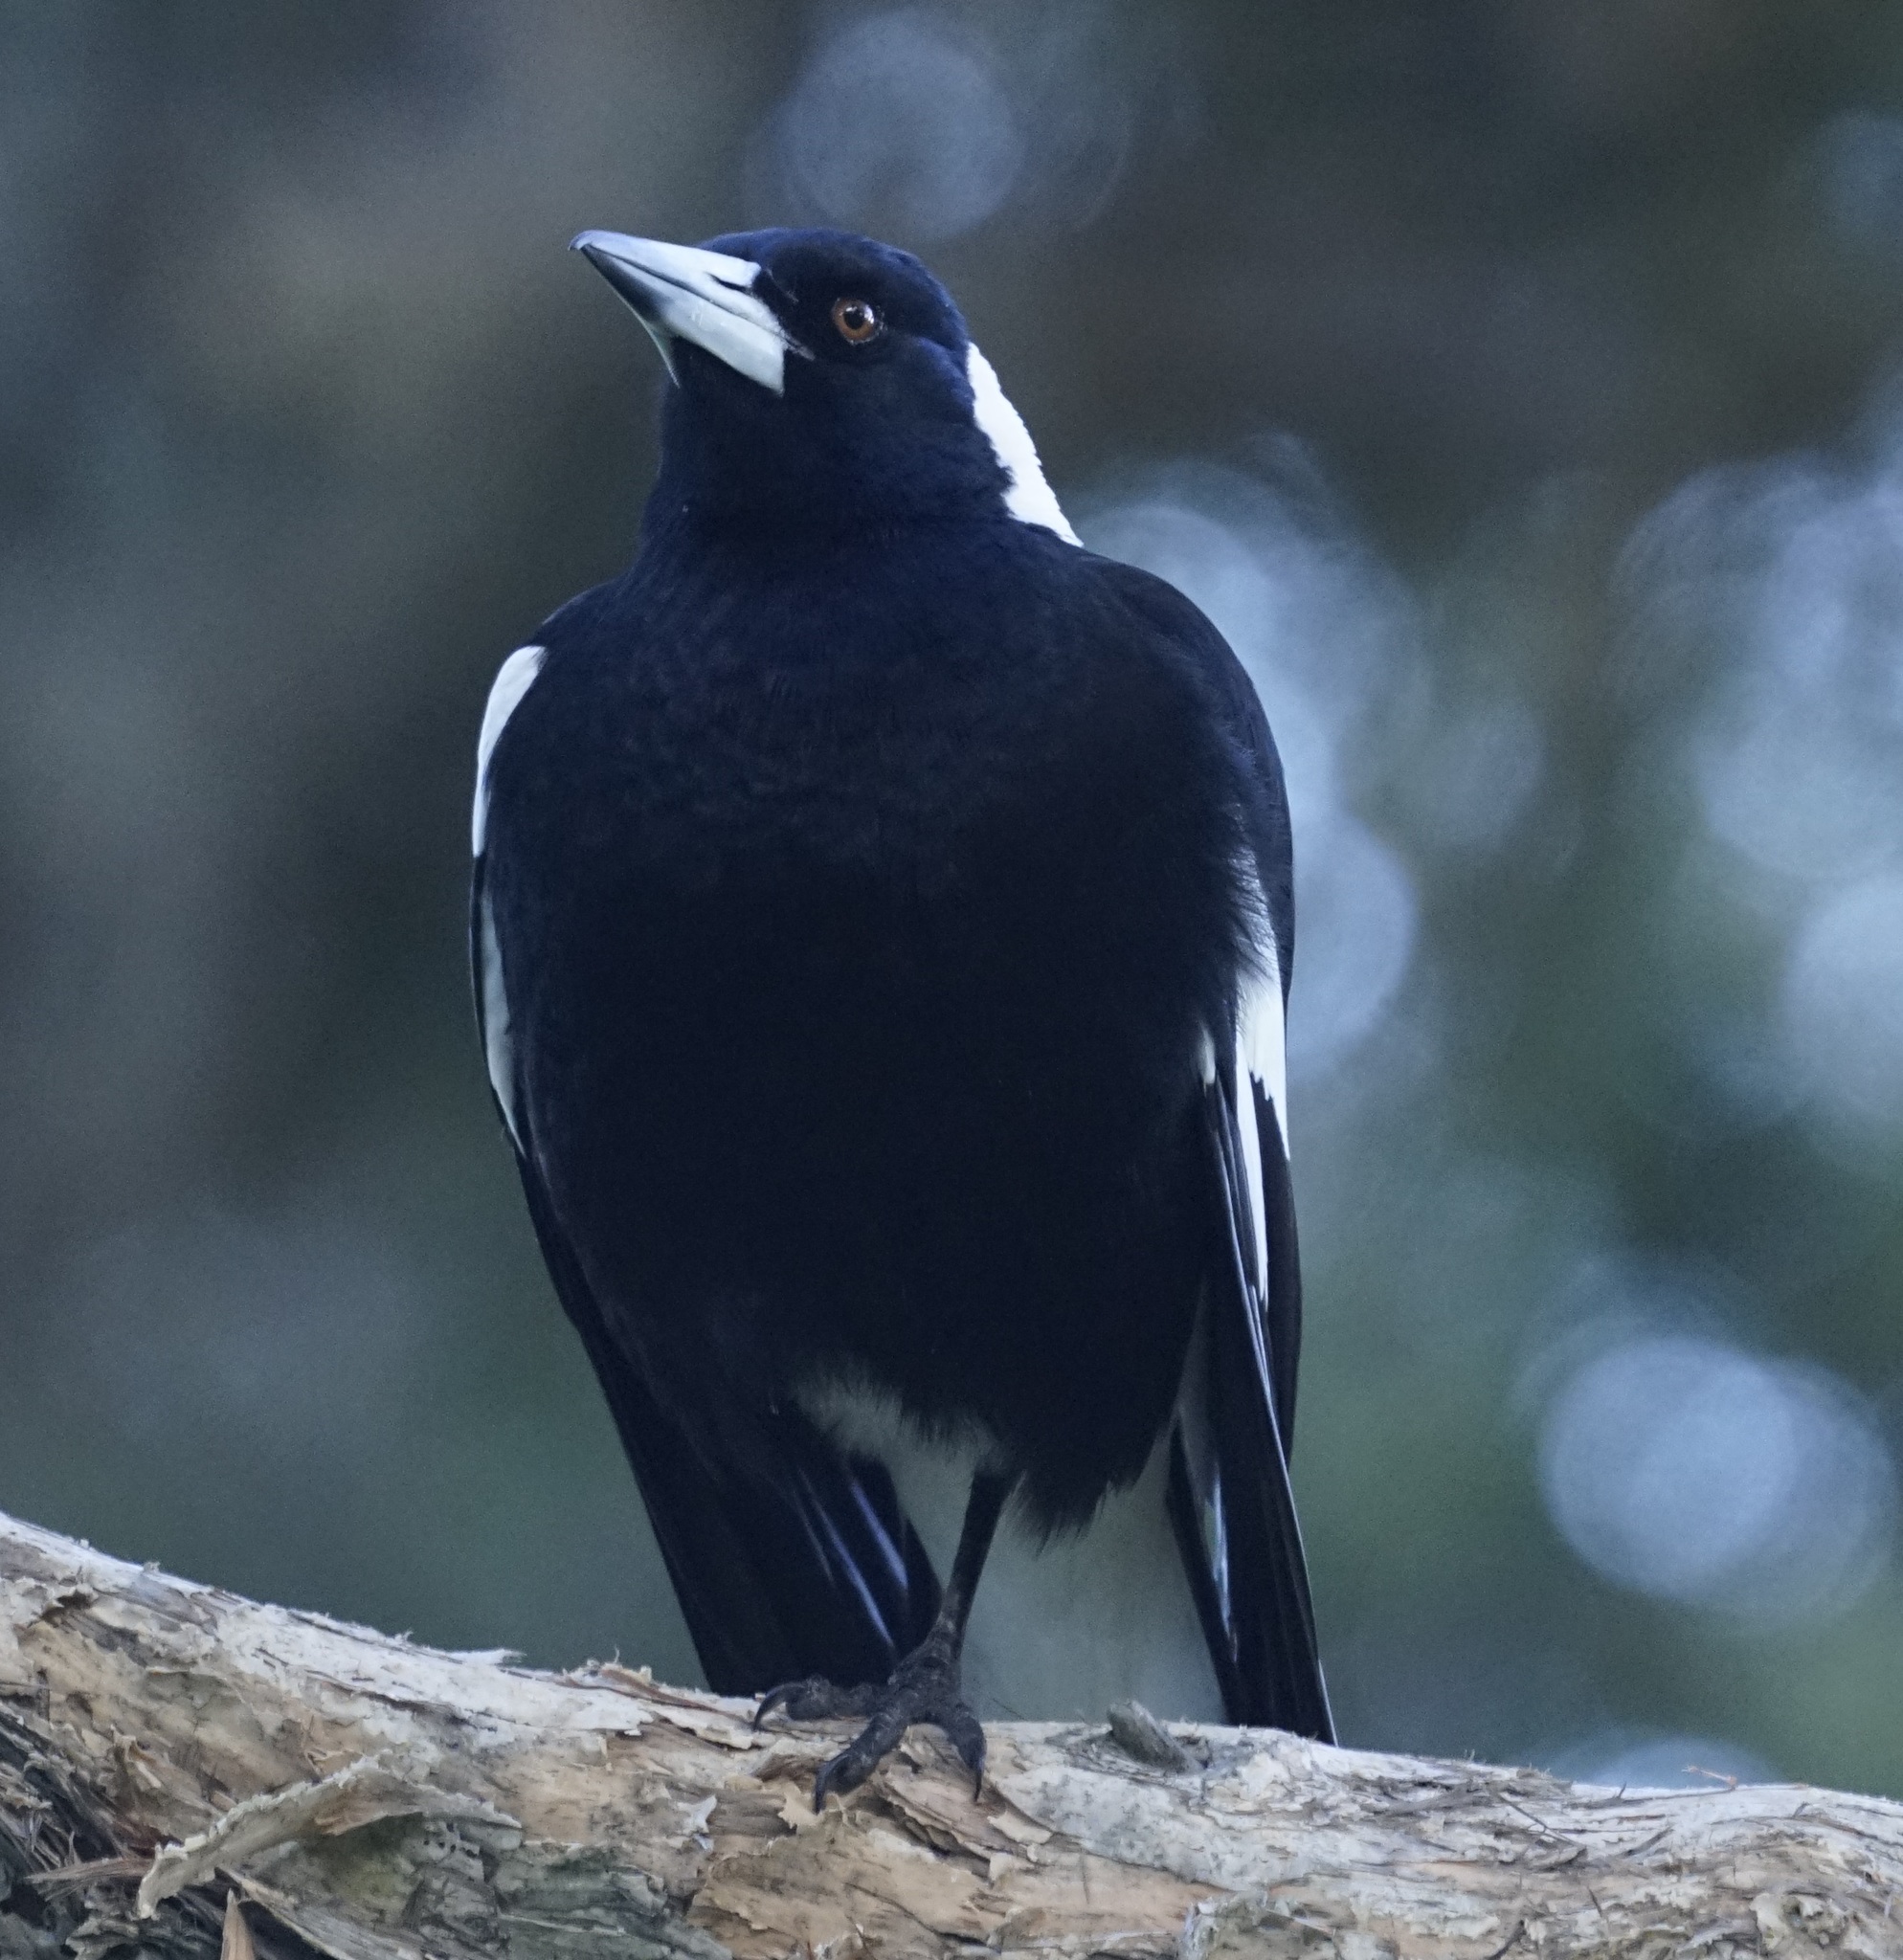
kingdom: Animalia
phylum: Chordata
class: Aves
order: Passeriformes
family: Cracticidae
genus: Gymnorhina
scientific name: Gymnorhina tibicen
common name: Australian magpie
